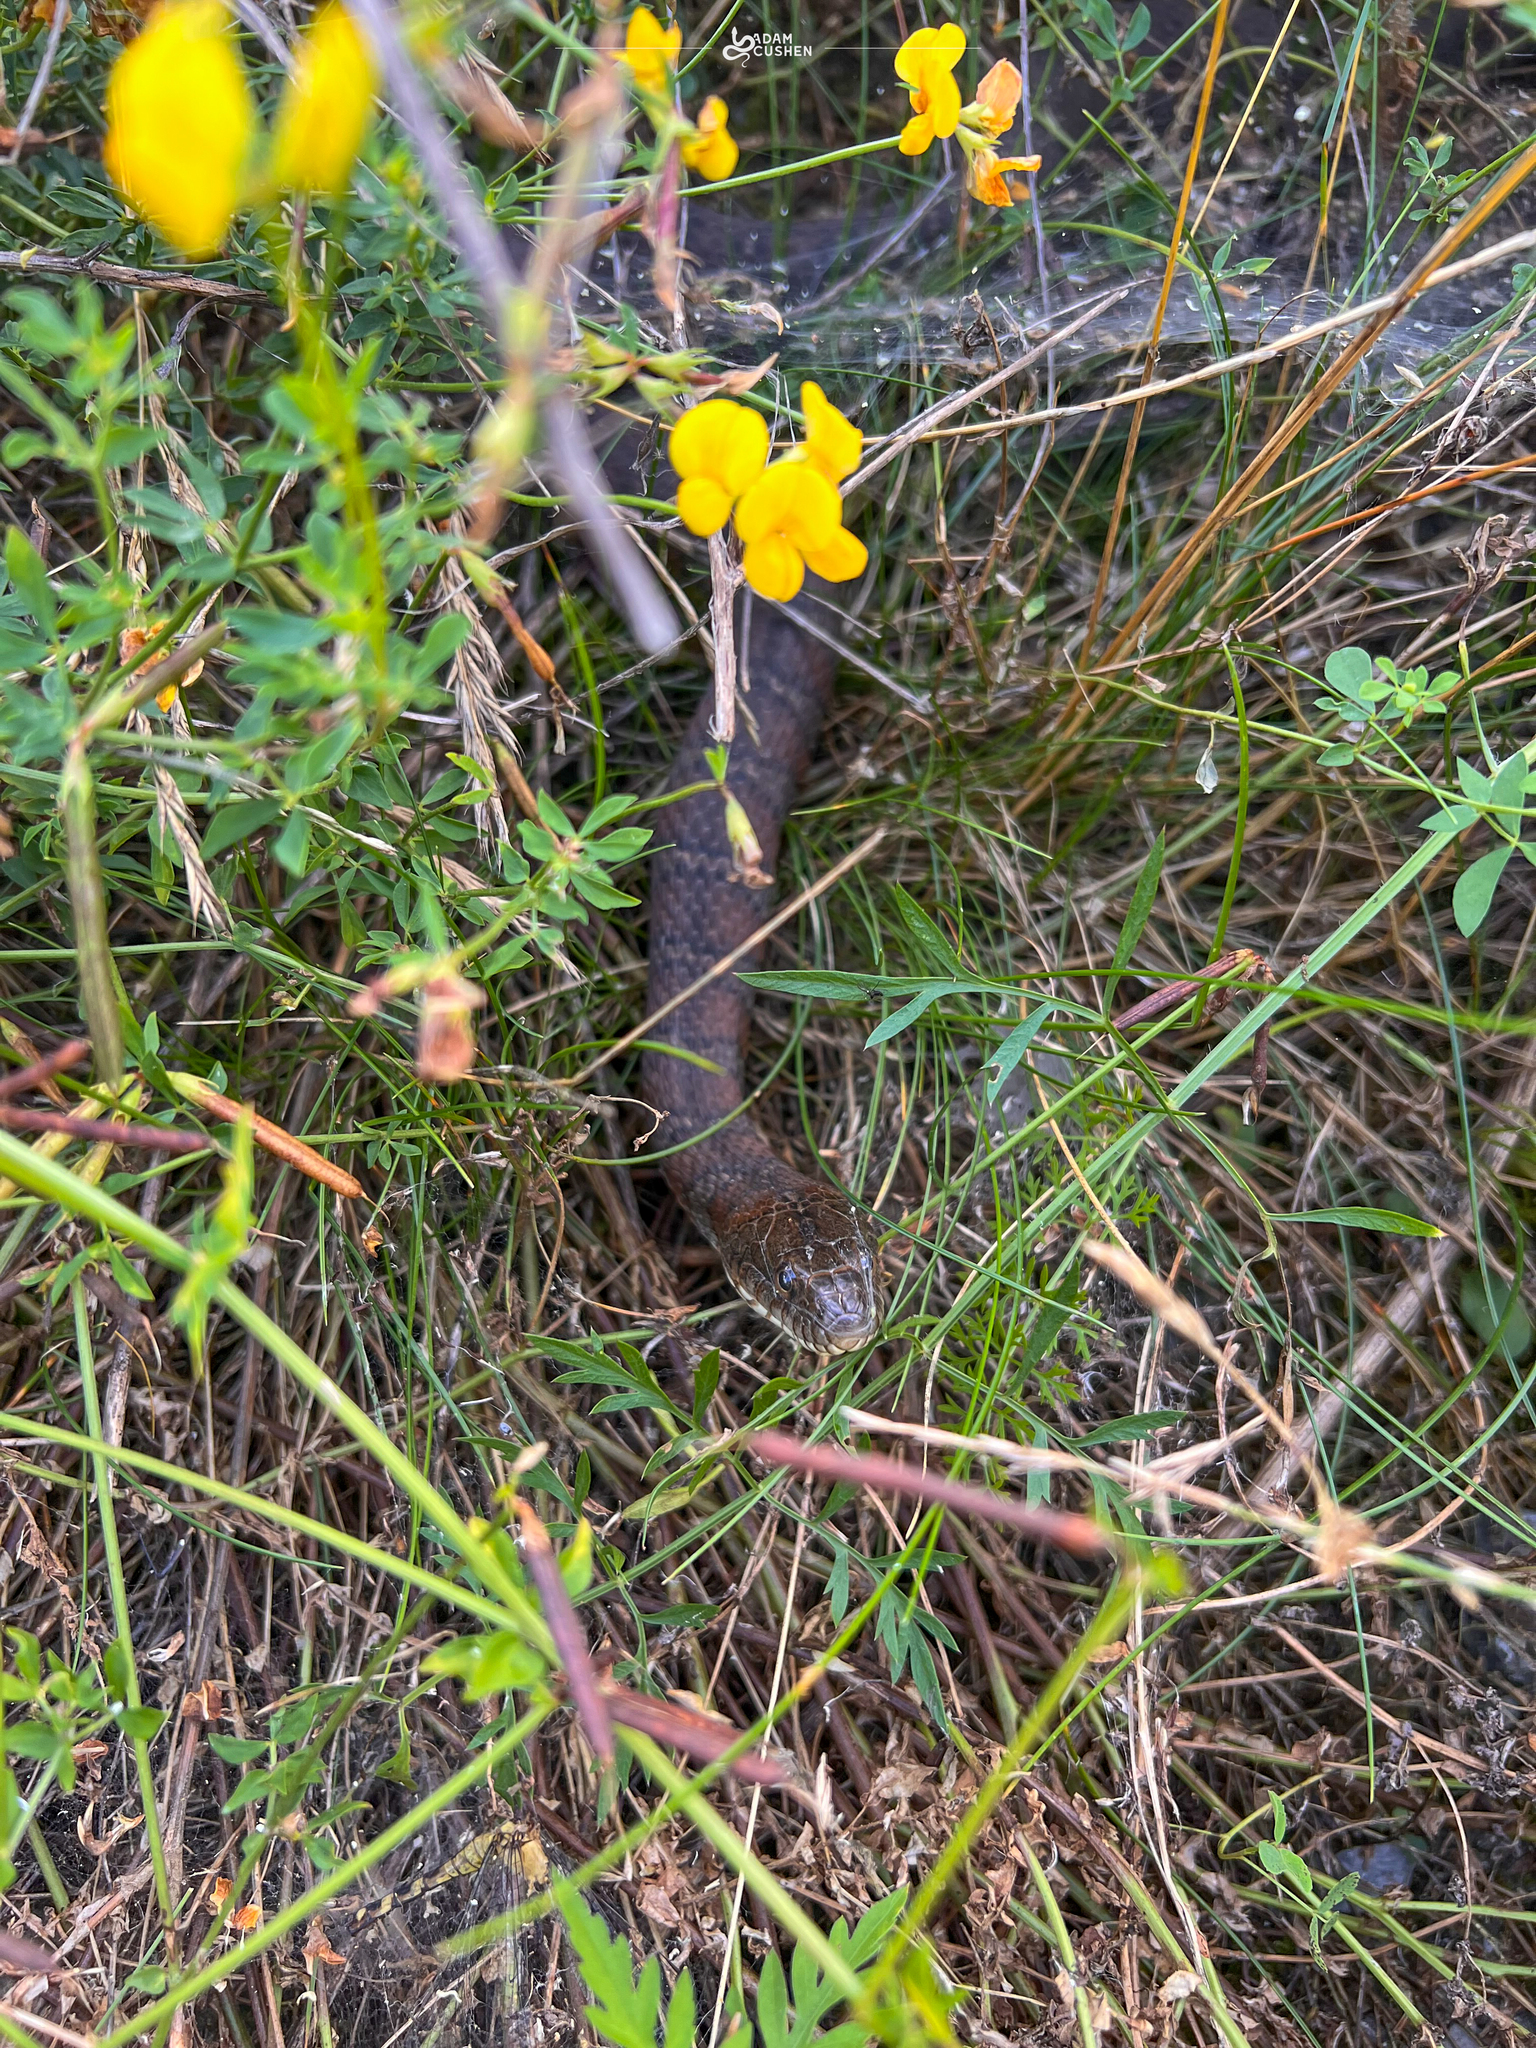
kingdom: Animalia
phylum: Chordata
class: Squamata
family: Colubridae
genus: Nerodia
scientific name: Nerodia sipedon
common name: Northern water snake
